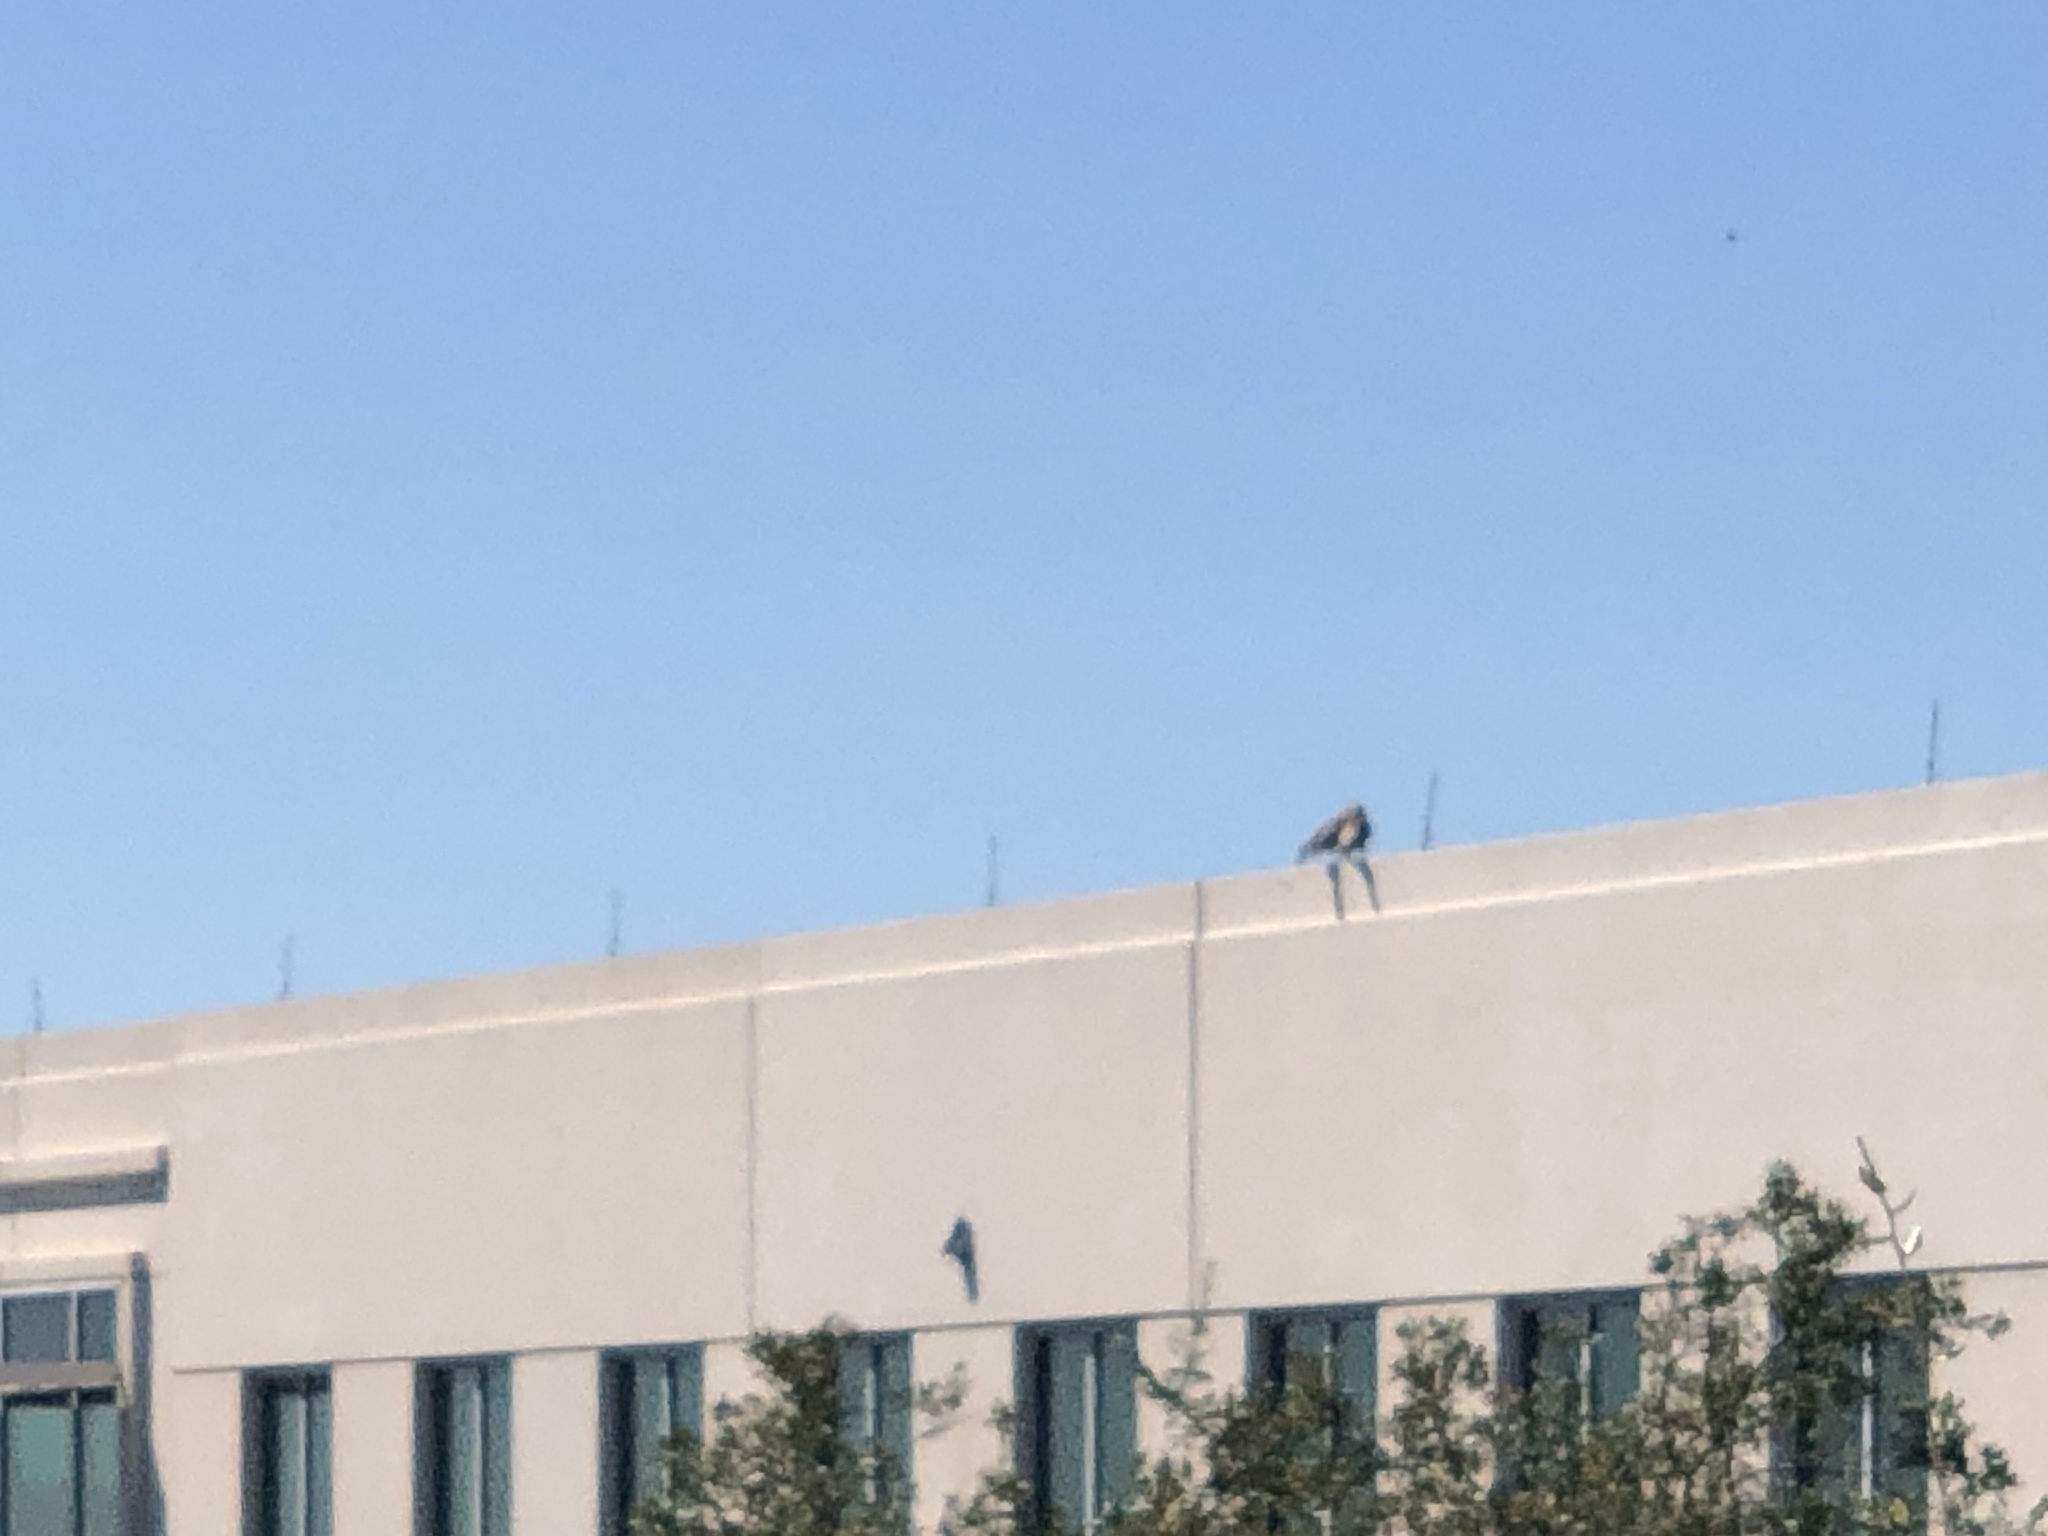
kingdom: Animalia
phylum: Chordata
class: Aves
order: Accipitriformes
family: Accipitridae
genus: Buteo
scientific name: Buteo lineatus
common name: Red-shouldered hawk
